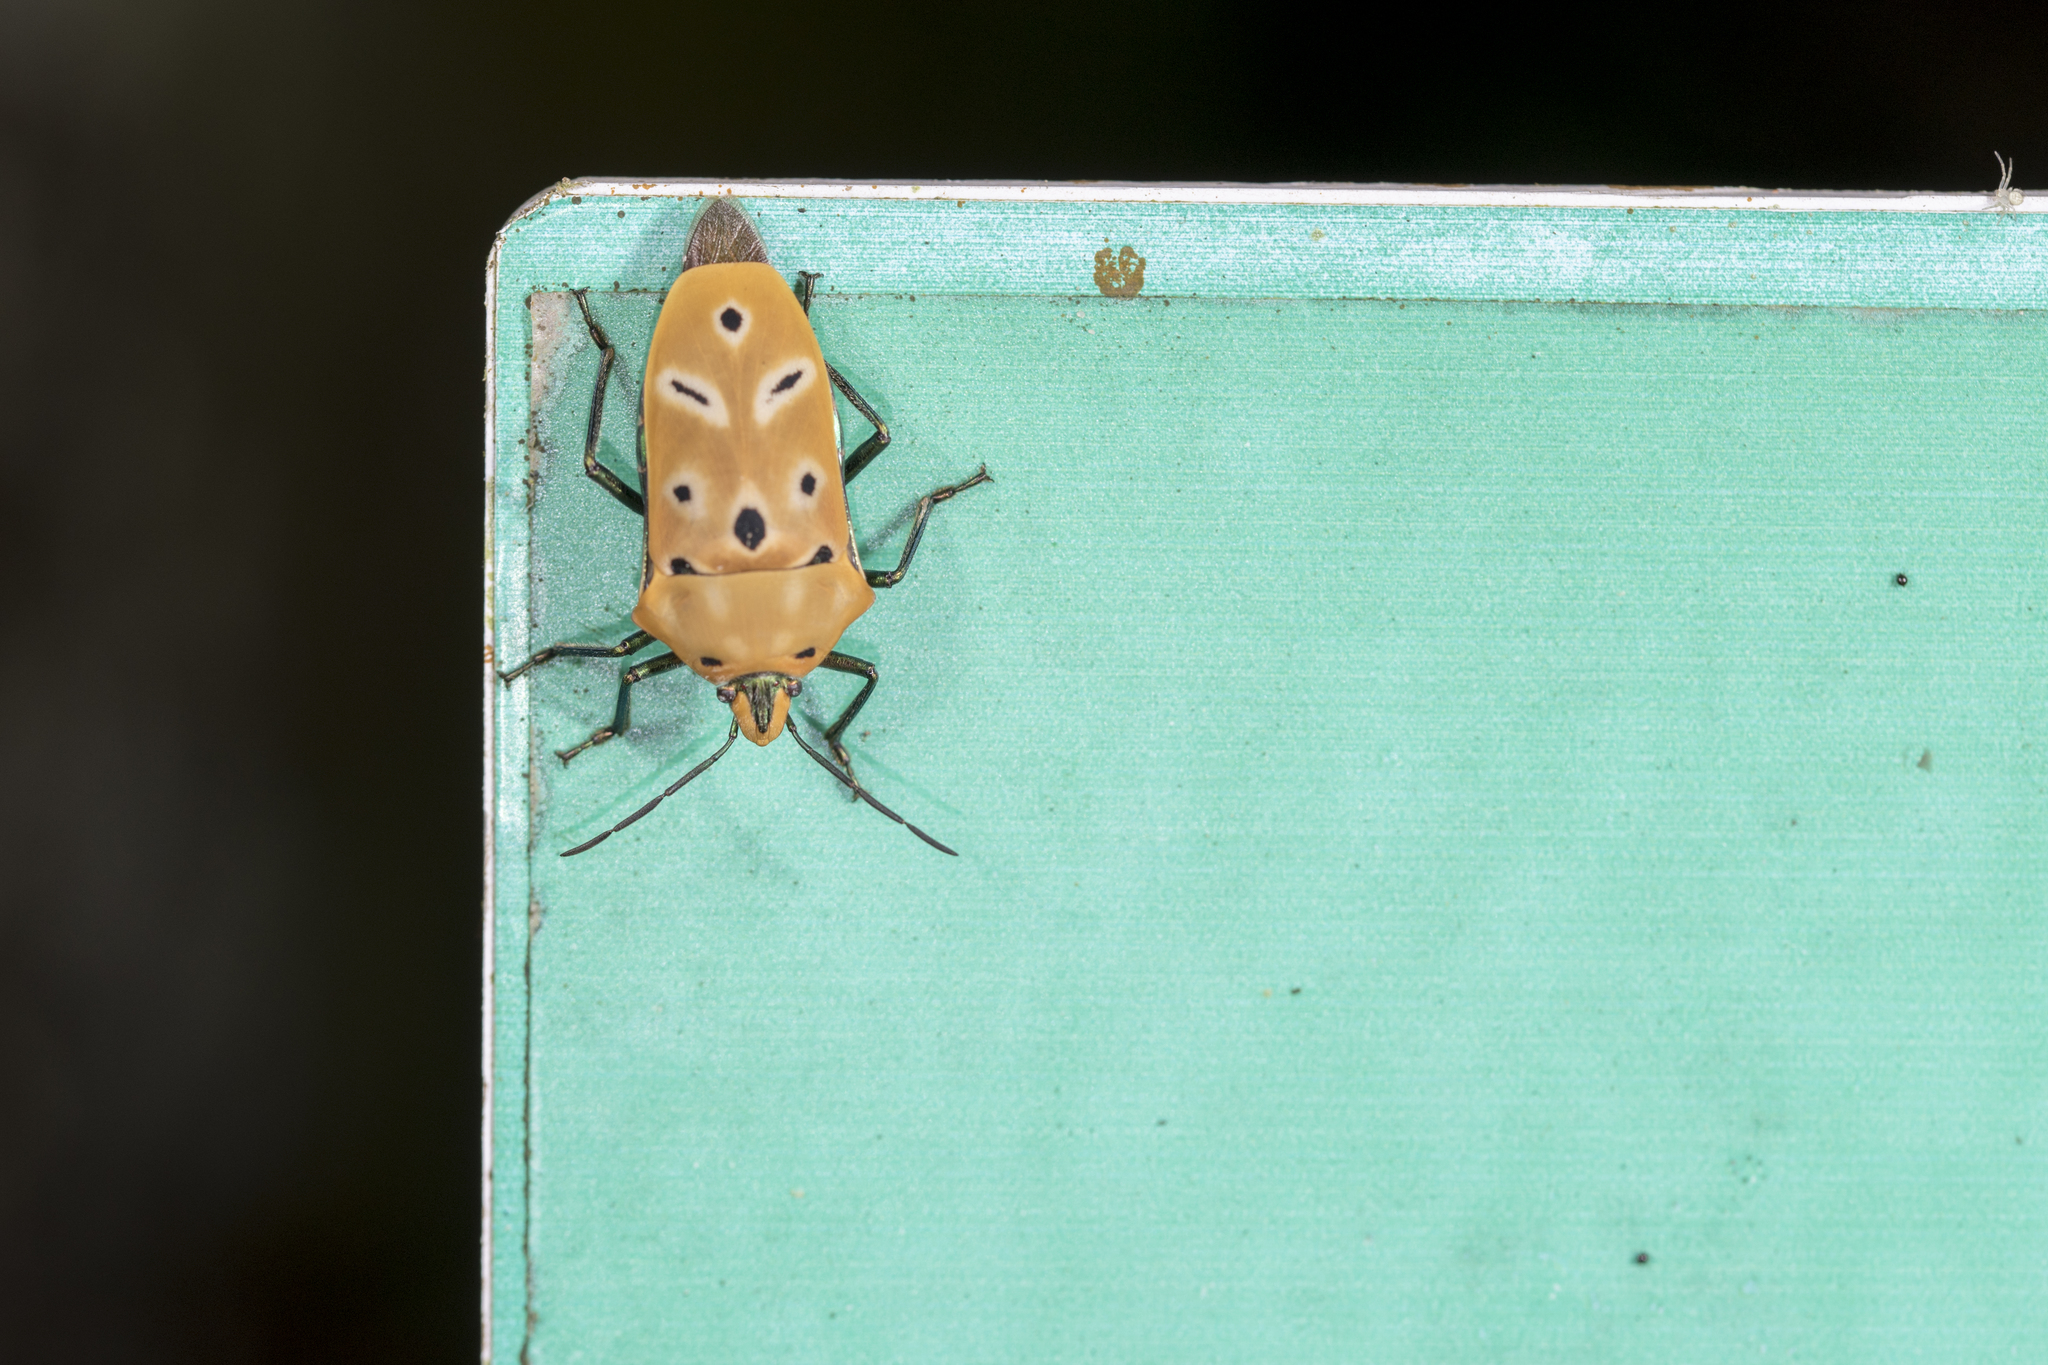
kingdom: Animalia
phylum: Arthropoda
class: Insecta
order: Hemiptera
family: Scutelleridae
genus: Cantao
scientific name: Cantao ocellatus
